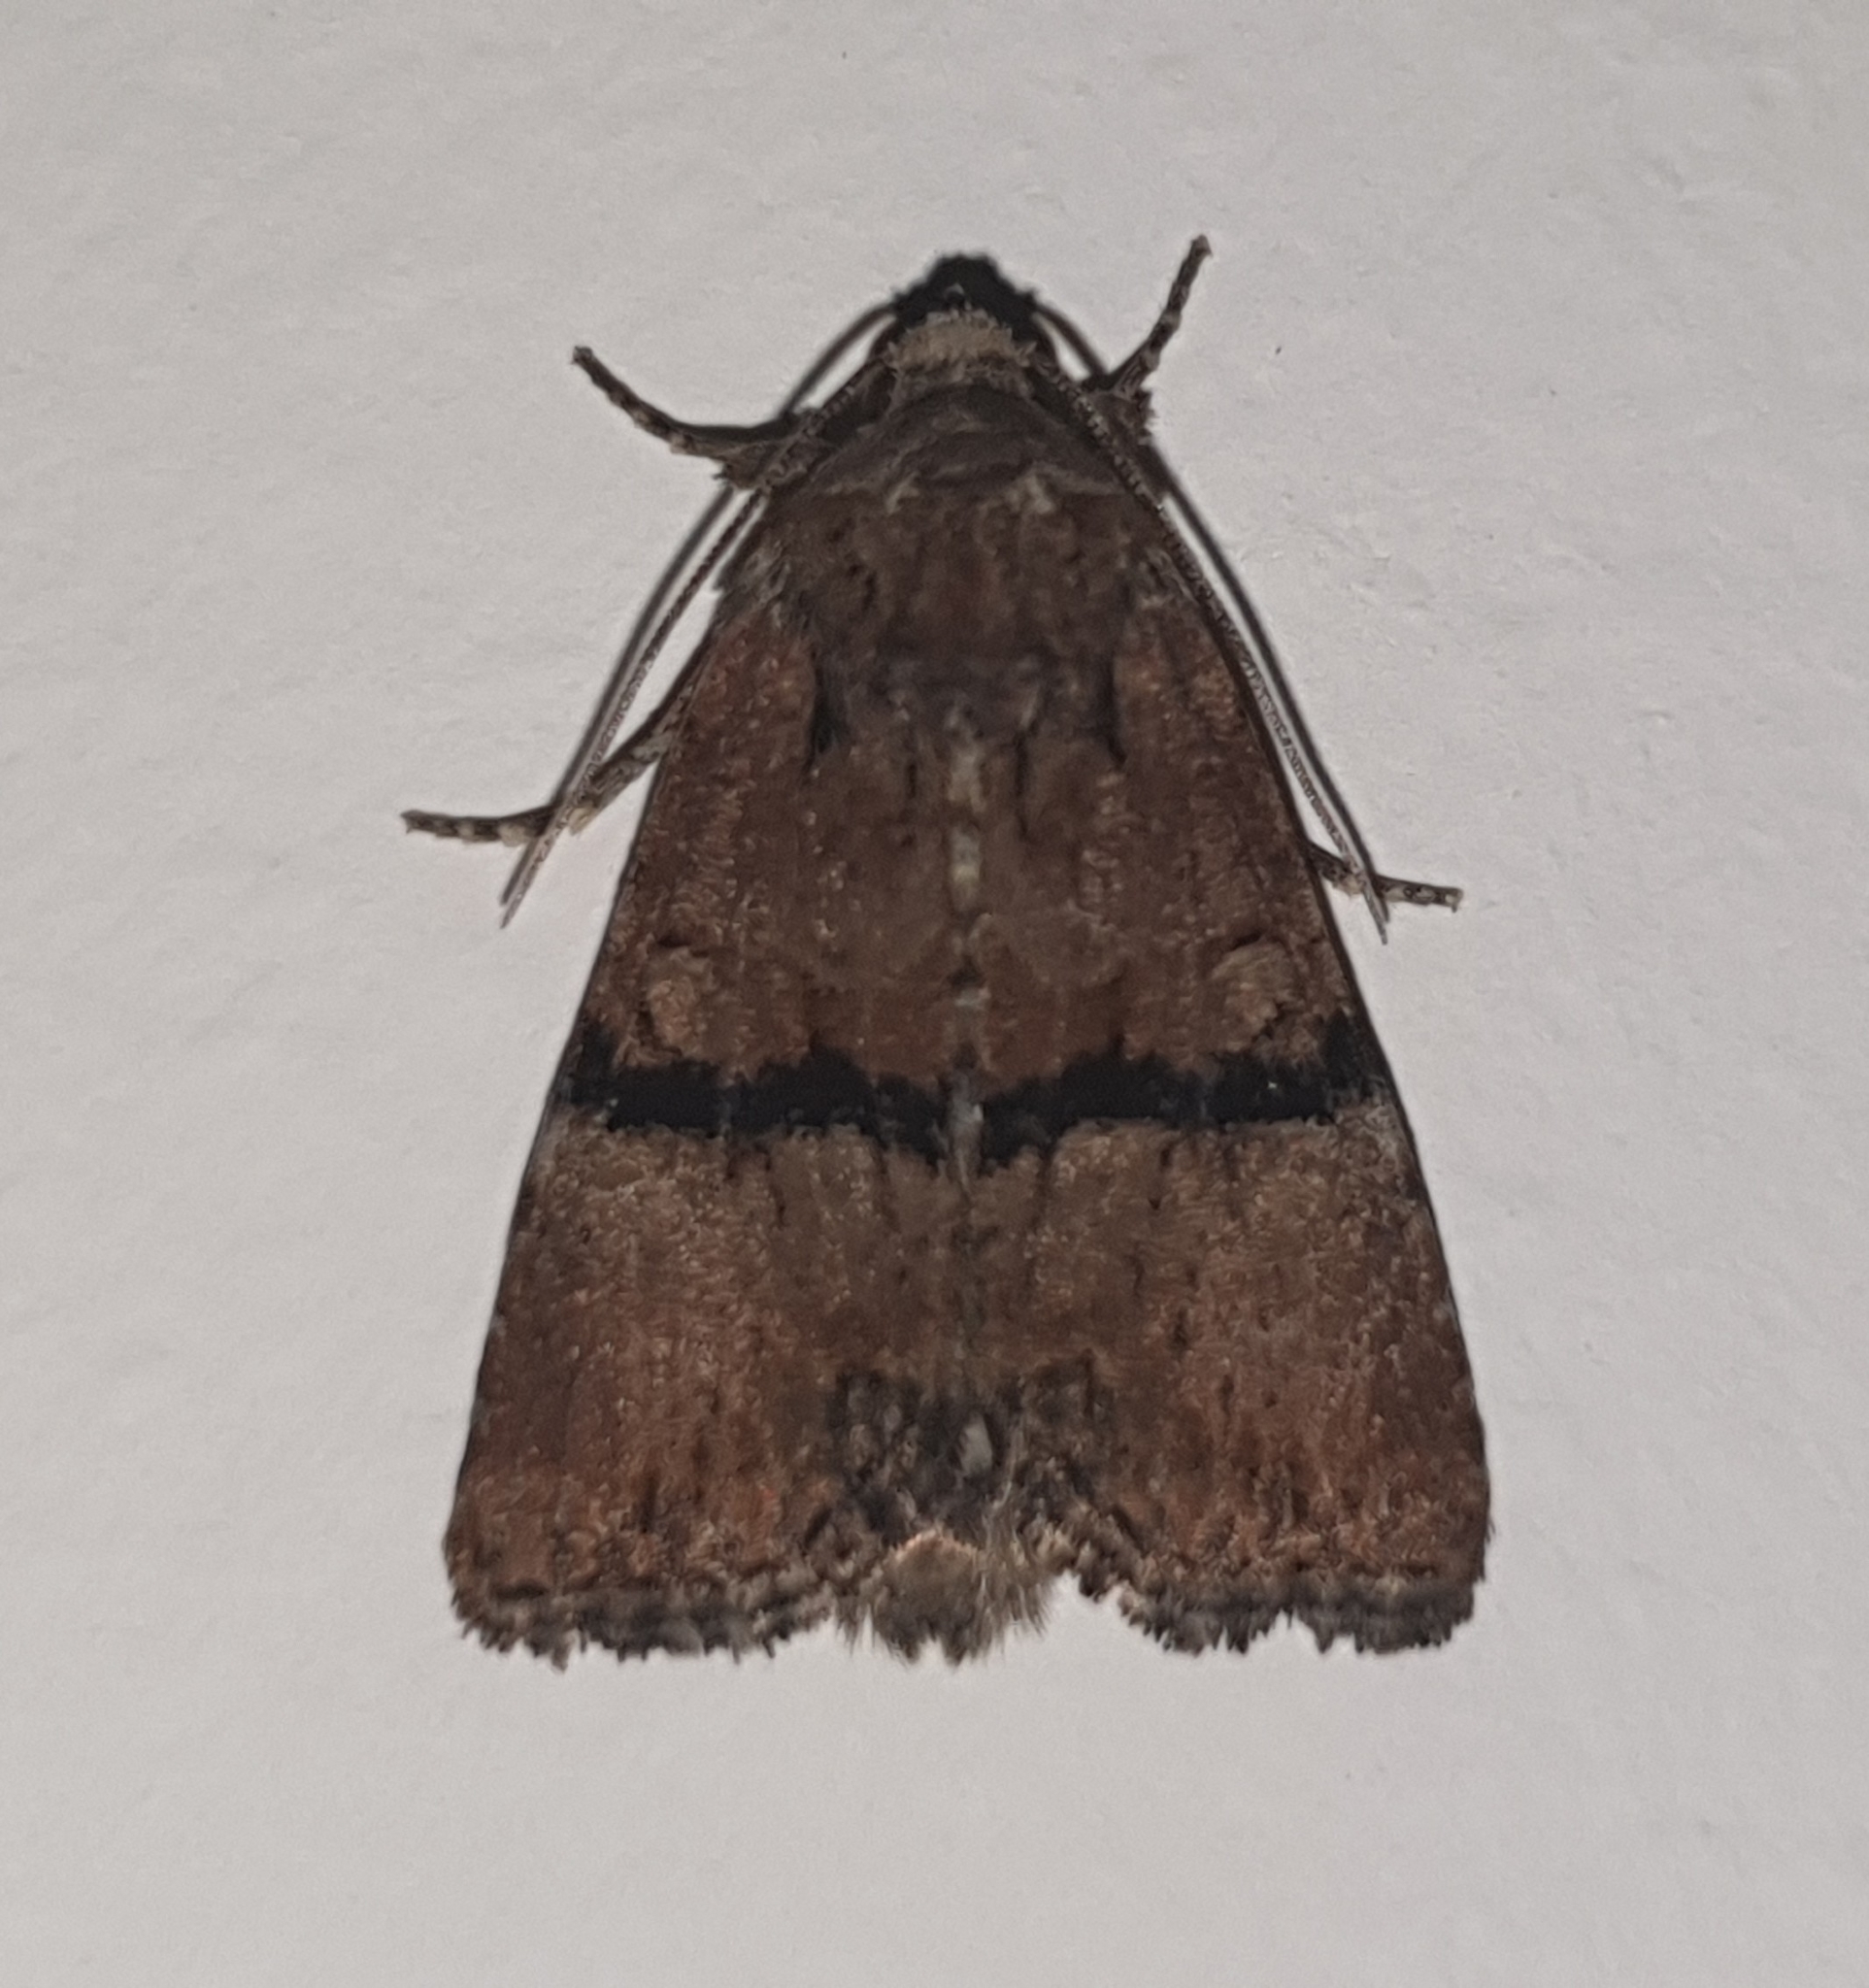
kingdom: Animalia
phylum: Arthropoda
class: Insecta
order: Lepidoptera
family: Noctuidae
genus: Mesoligia
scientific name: Mesoligia furuncula
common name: Cloaked minor
